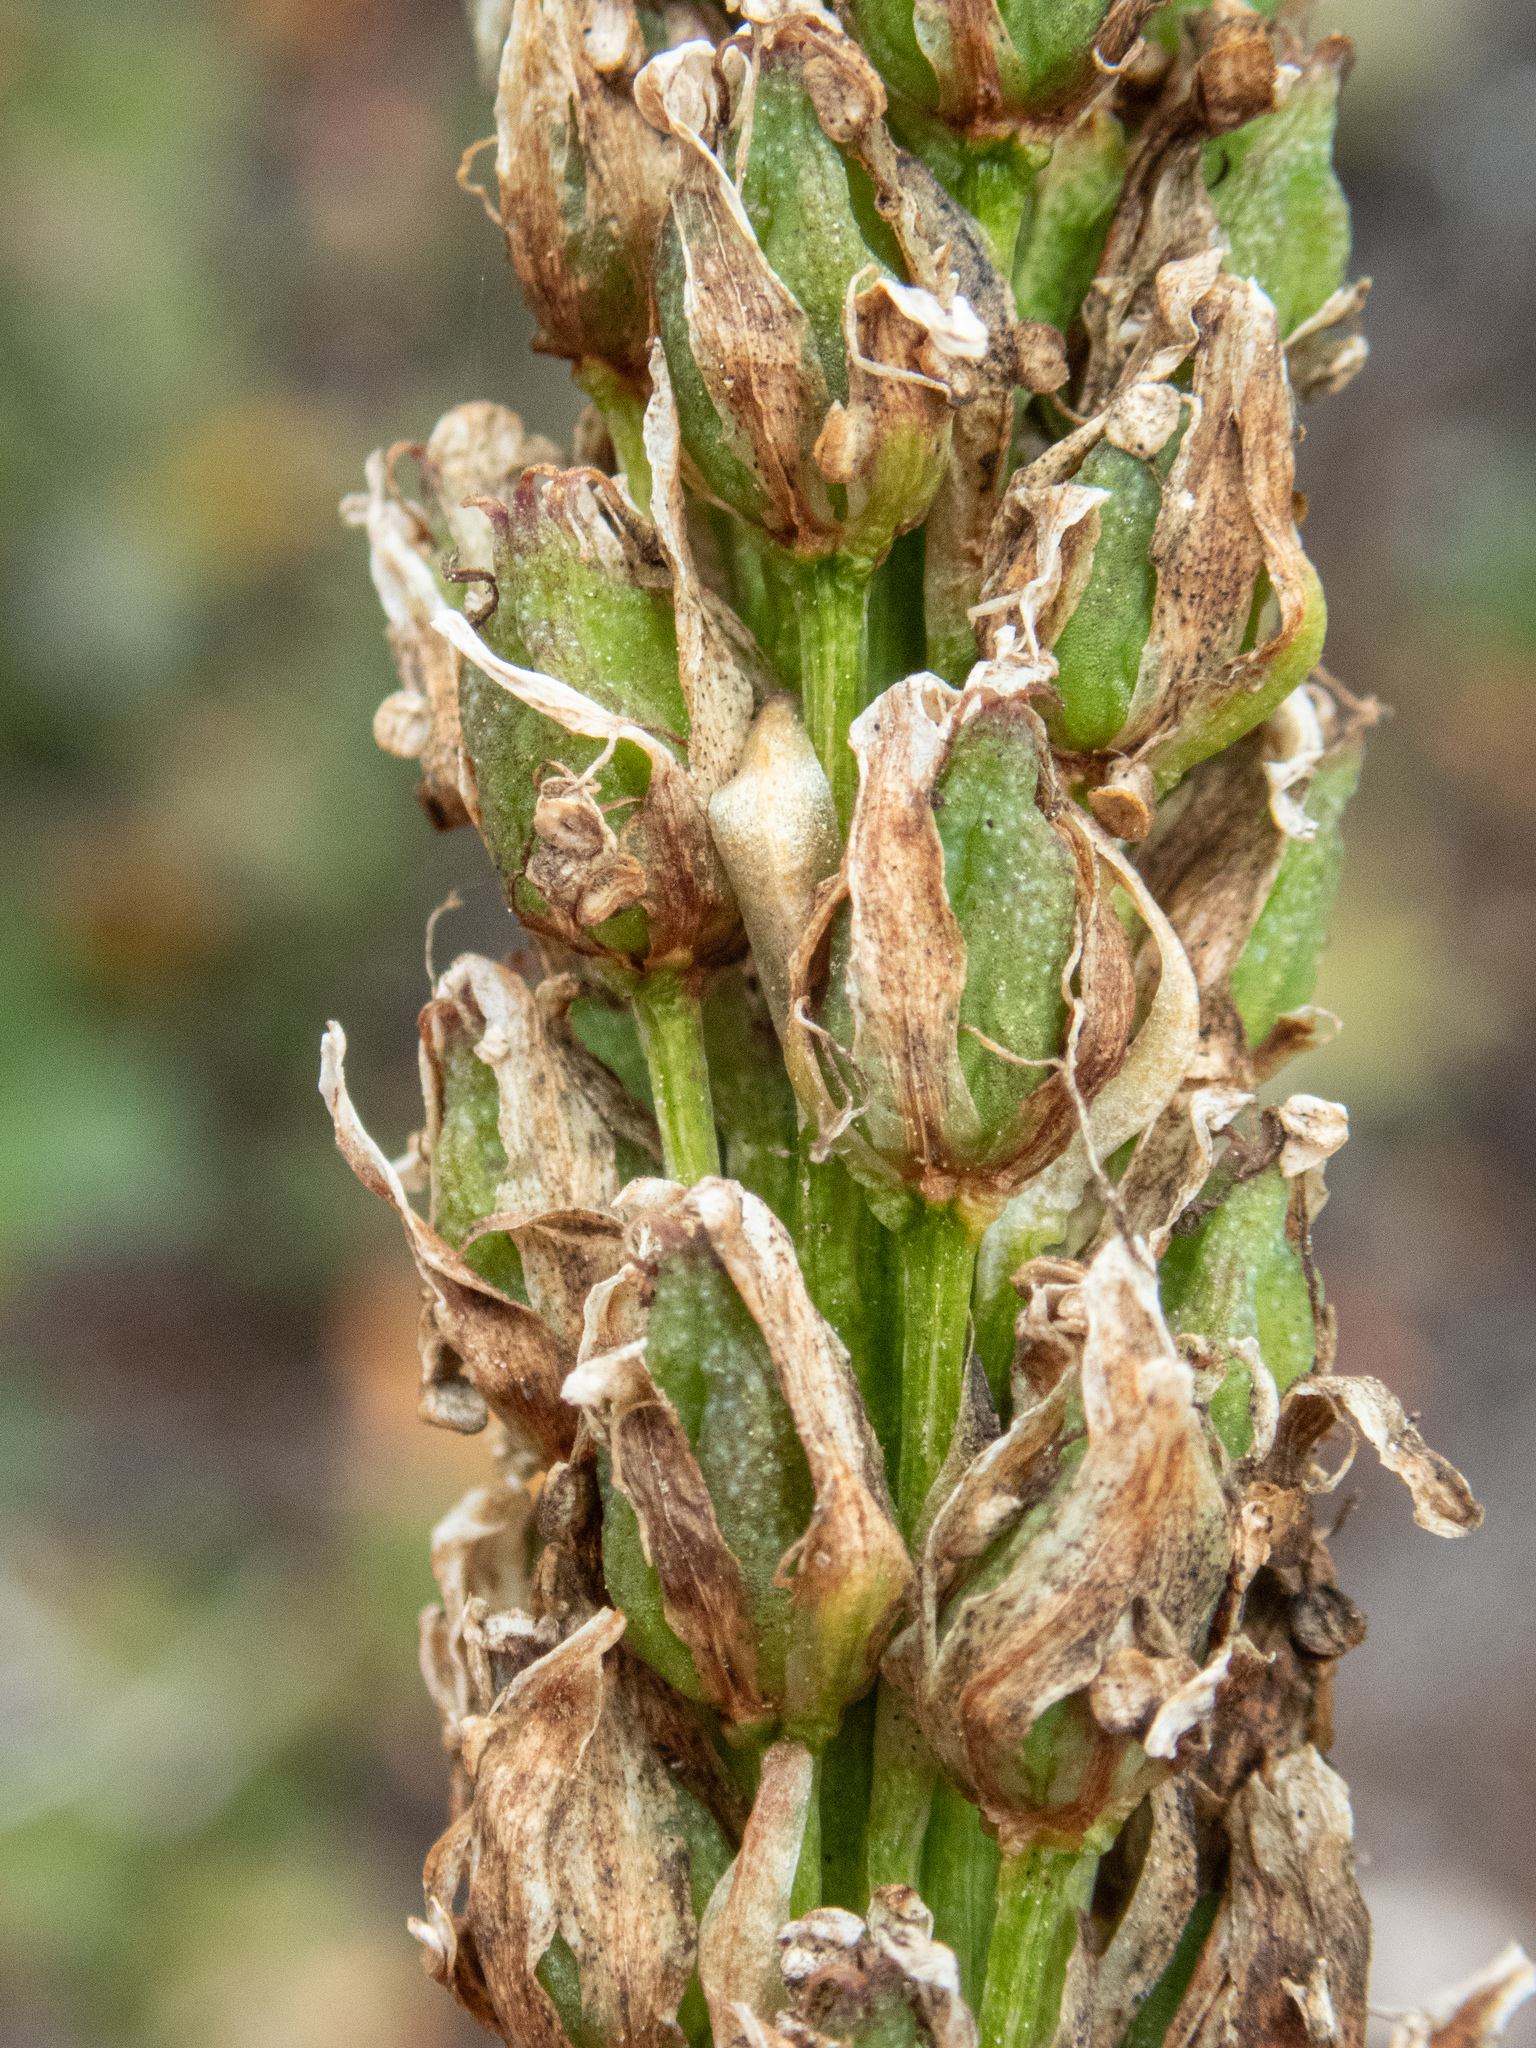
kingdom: Plantae
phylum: Tracheophyta
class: Liliopsida
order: Liliales
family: Melanthiaceae
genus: Xerophyllum
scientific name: Xerophyllum tenax
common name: Bear-grass
